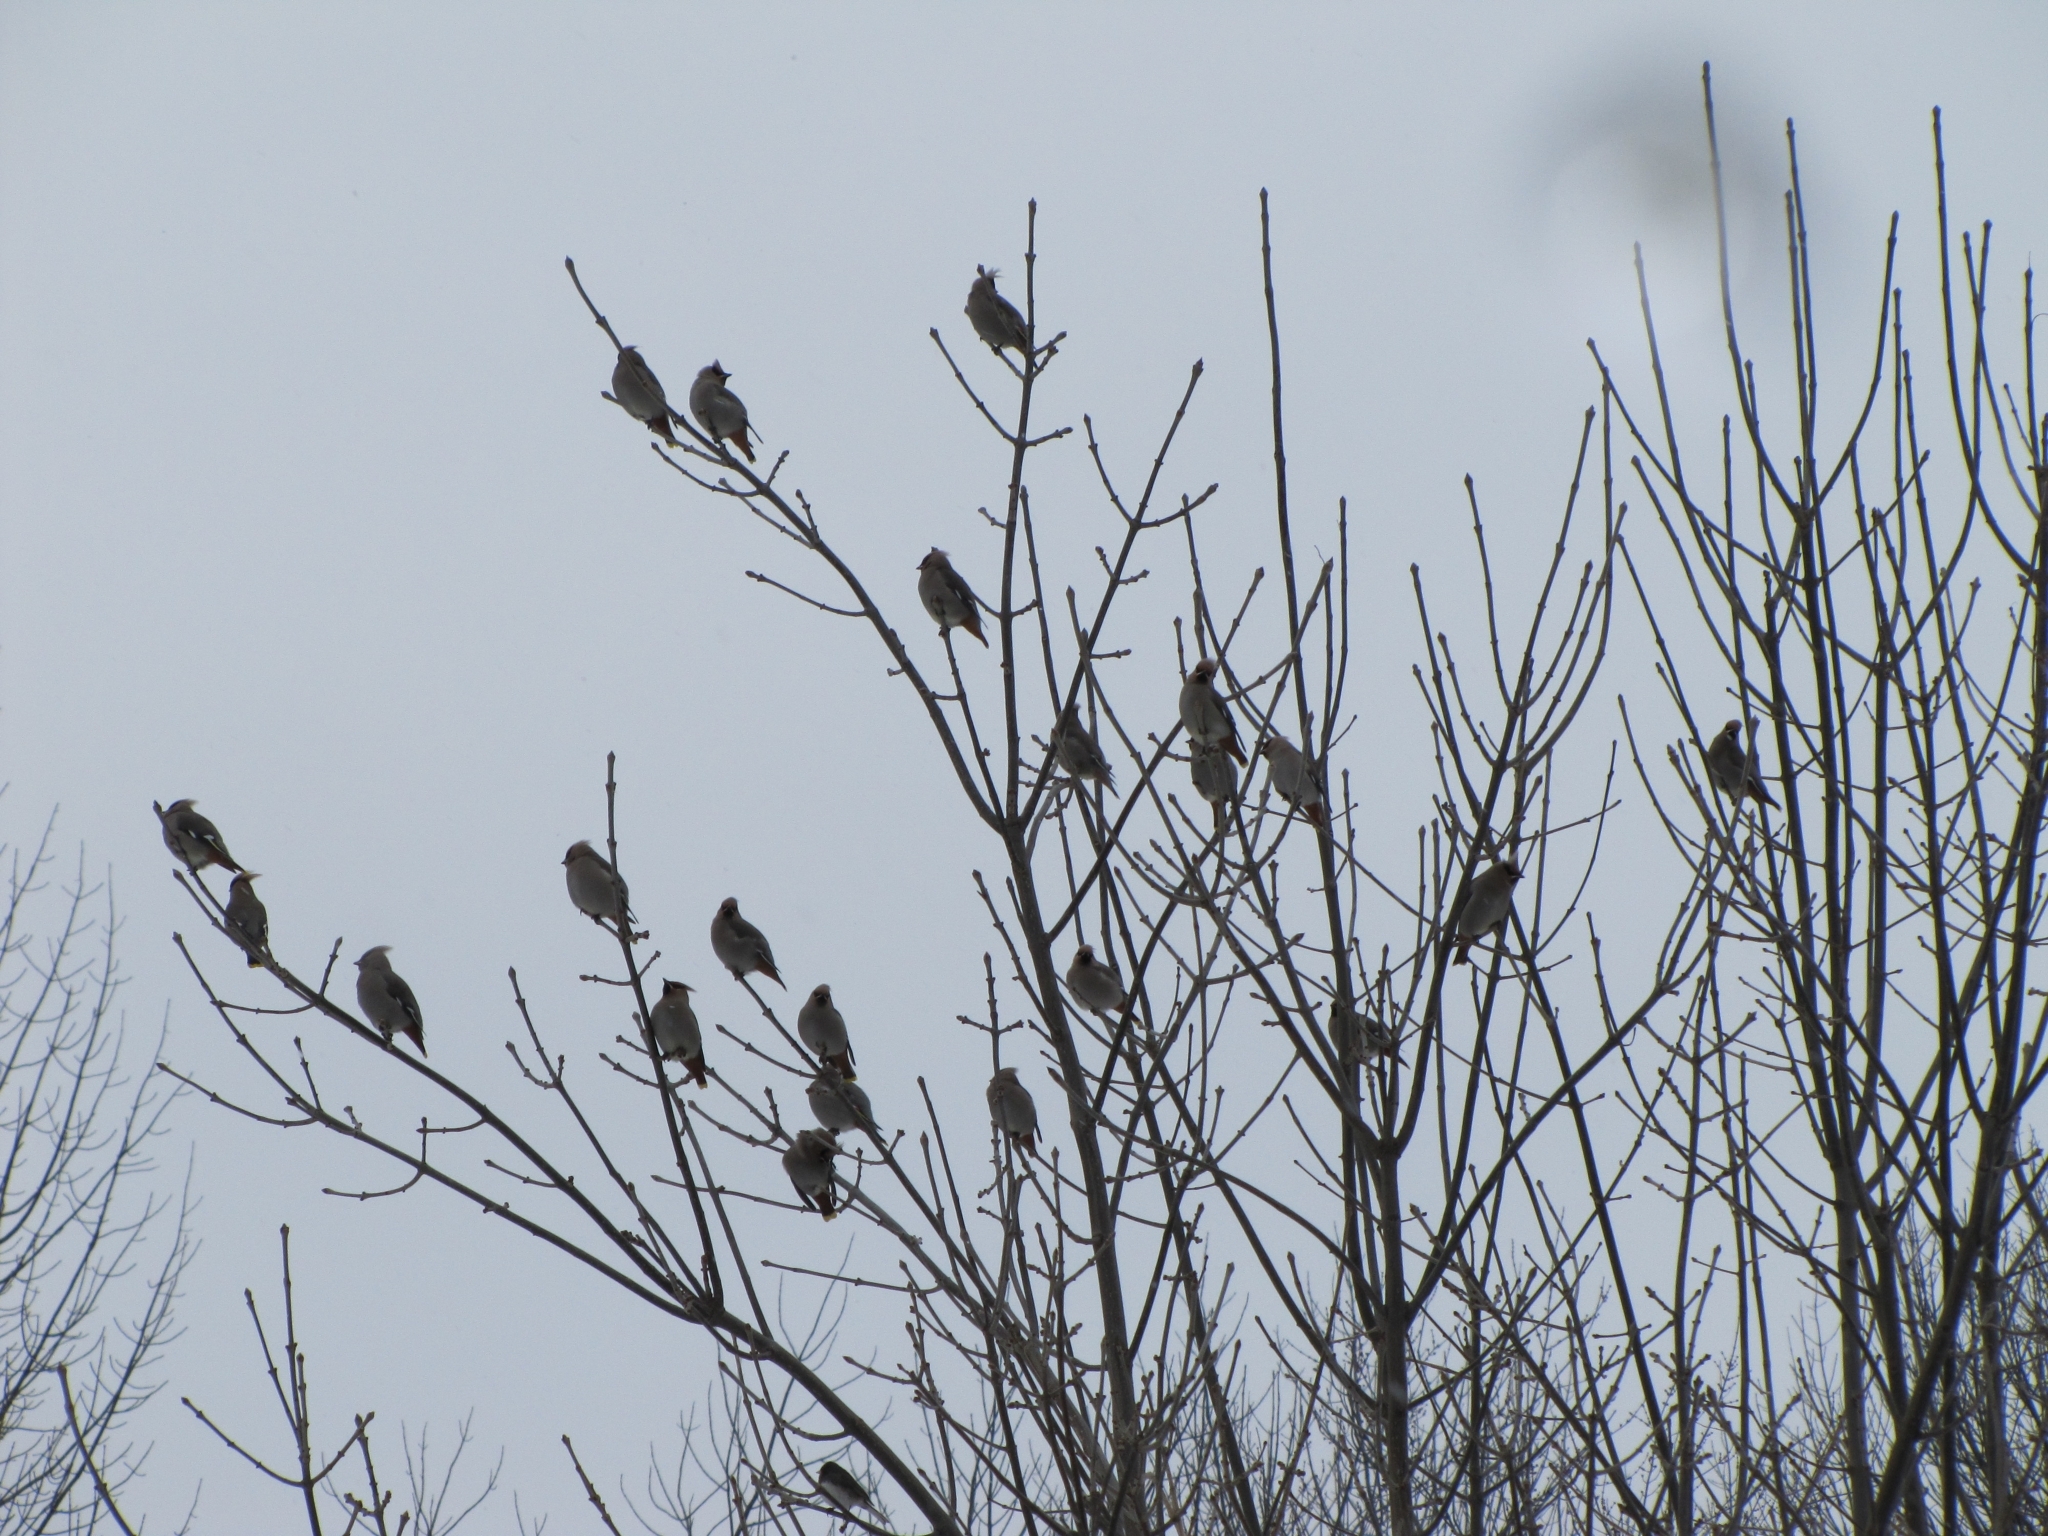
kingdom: Animalia
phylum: Chordata
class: Aves
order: Passeriformes
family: Bombycillidae
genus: Bombycilla
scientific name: Bombycilla garrulus
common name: Bohemian waxwing
